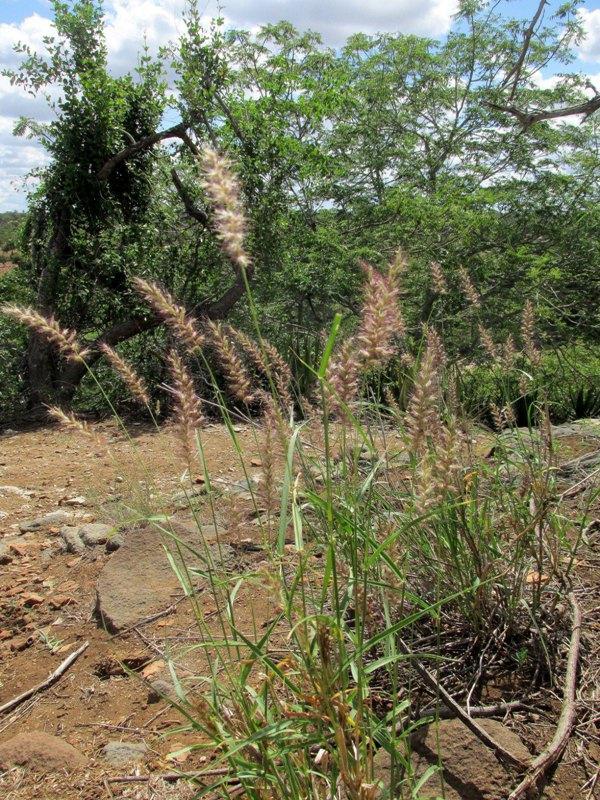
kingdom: Plantae
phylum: Tracheophyta
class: Liliopsida
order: Poales
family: Poaceae
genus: Cenchrus
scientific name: Cenchrus ciliaris
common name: Buffelgrass
